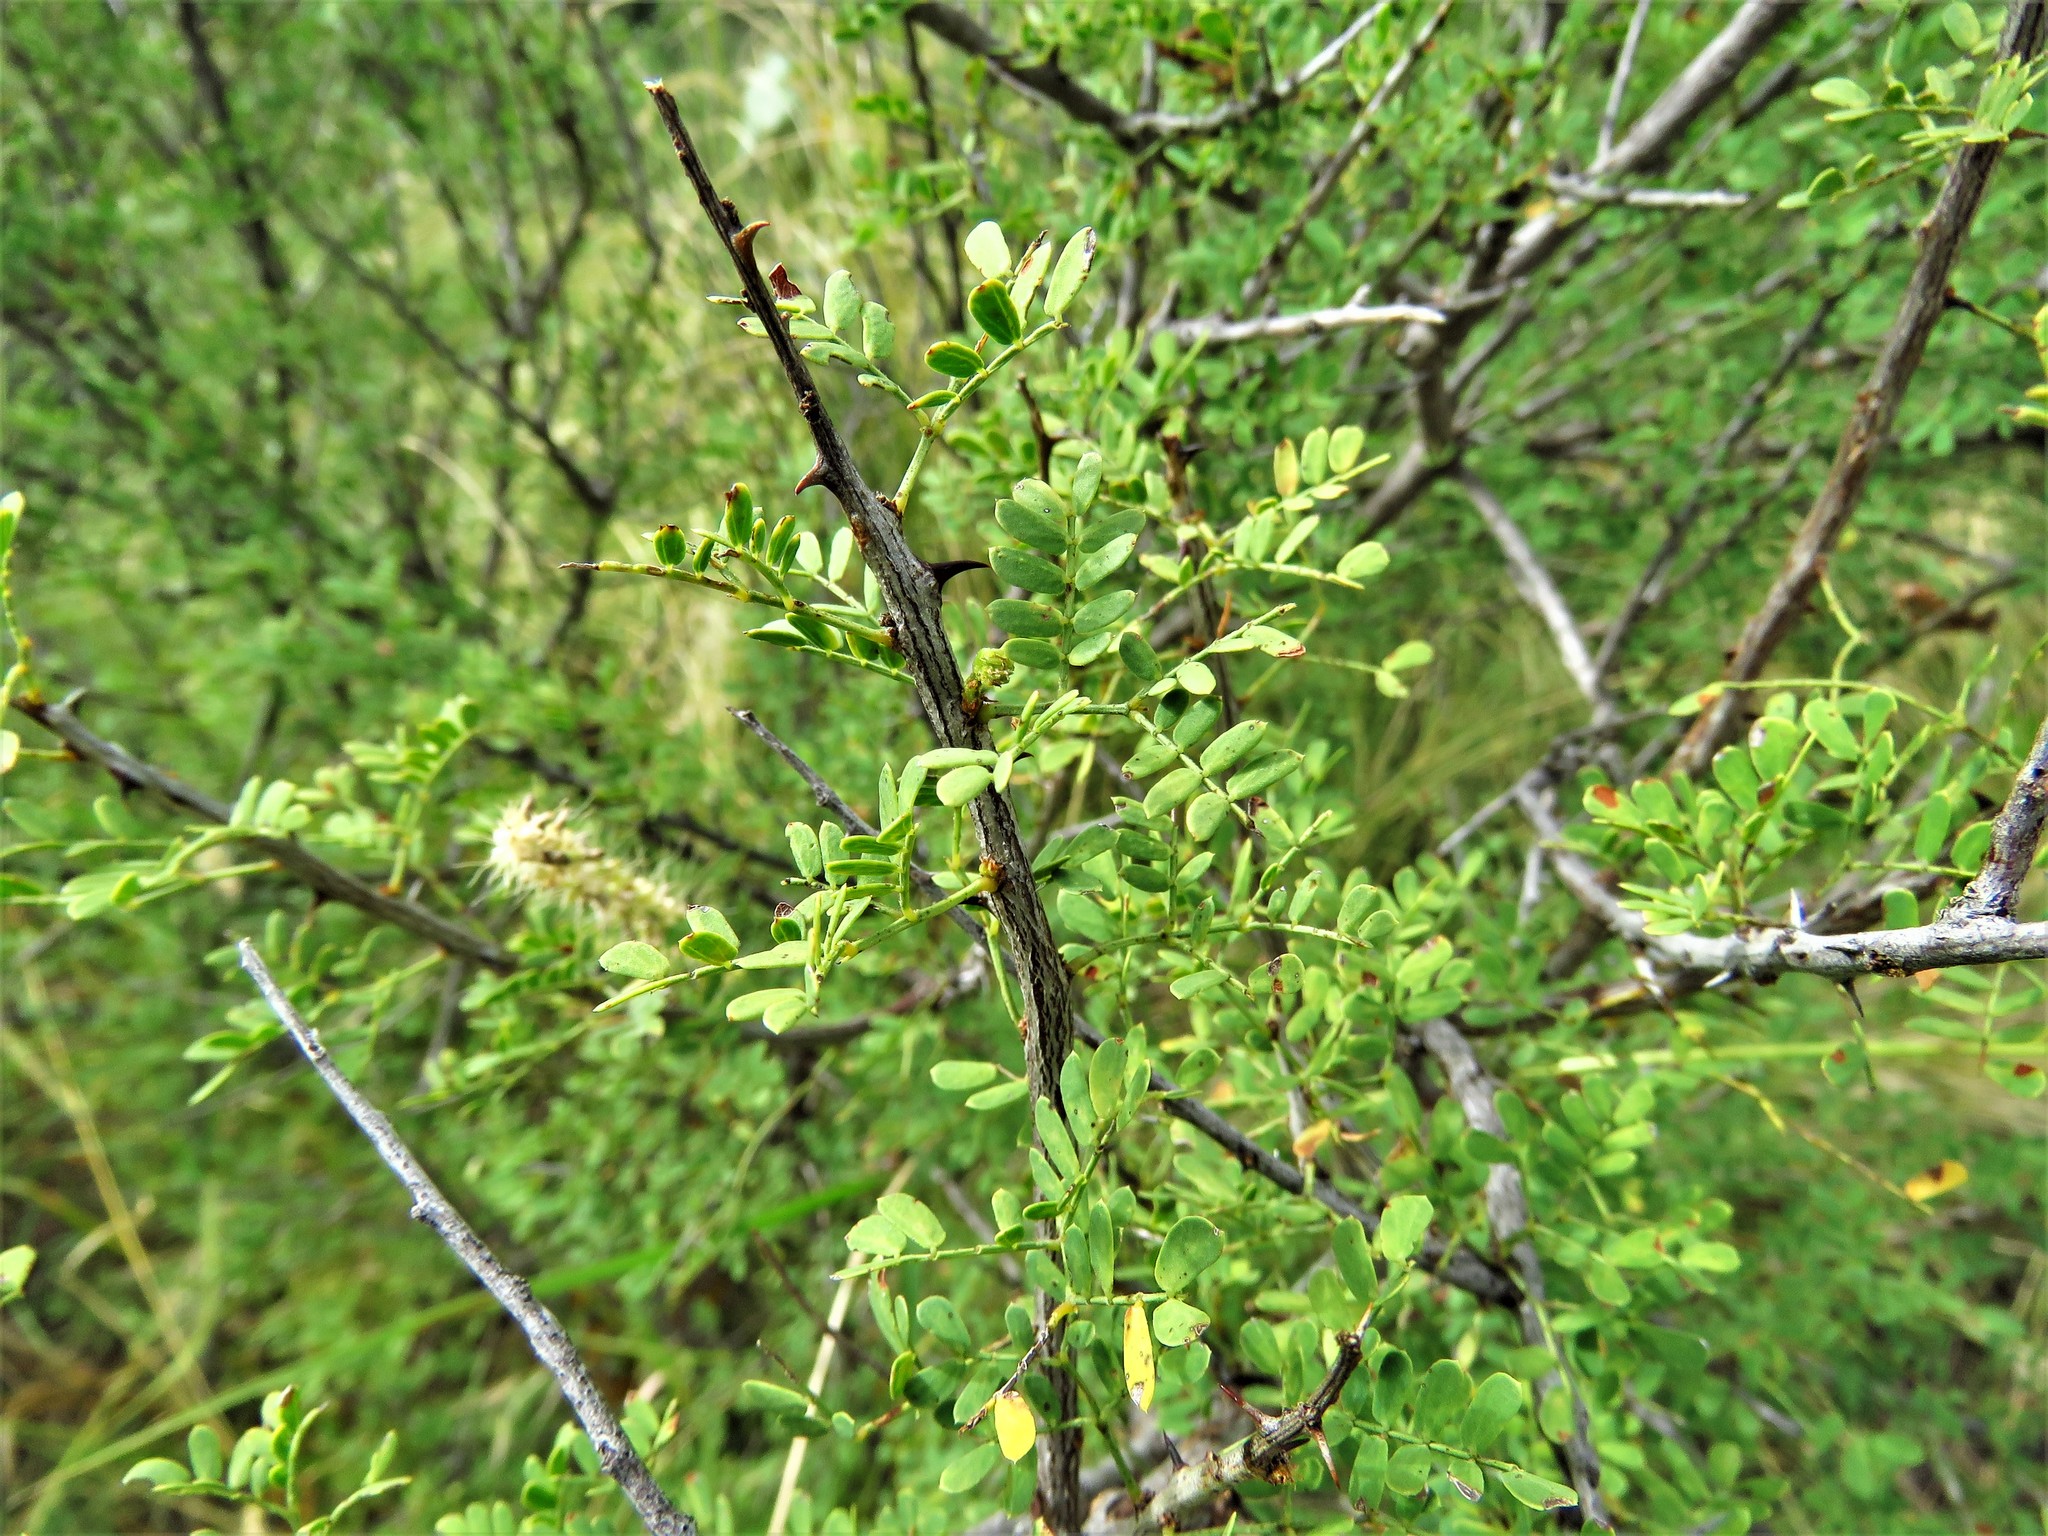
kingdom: Plantae
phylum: Tracheophyta
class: Magnoliopsida
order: Fabales
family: Fabaceae
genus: Senegalia
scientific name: Senegalia greggii
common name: Texas-mimosa
